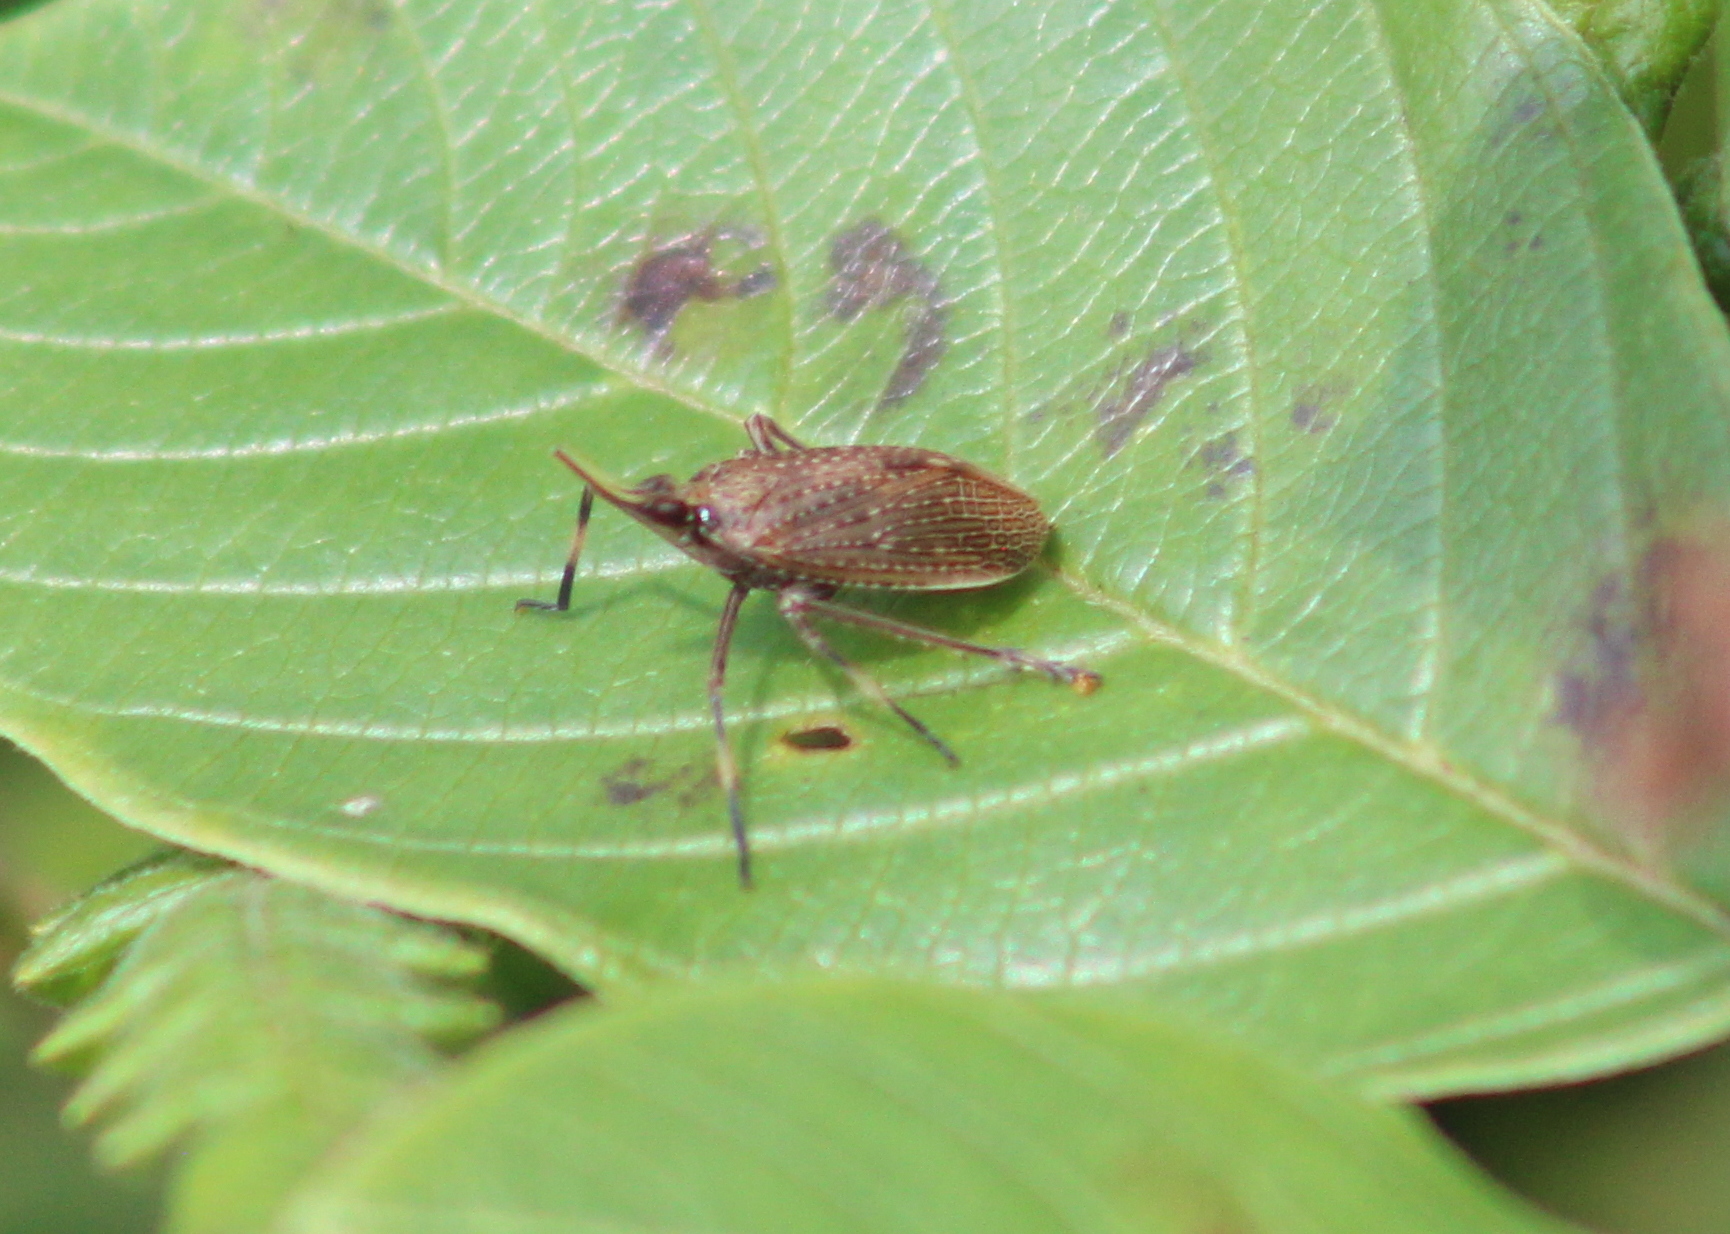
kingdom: Animalia
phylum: Arthropoda
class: Insecta
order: Hemiptera
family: Dictyopharidae
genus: Scolops
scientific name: Scolops sulcipes
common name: Partridge planthopper
